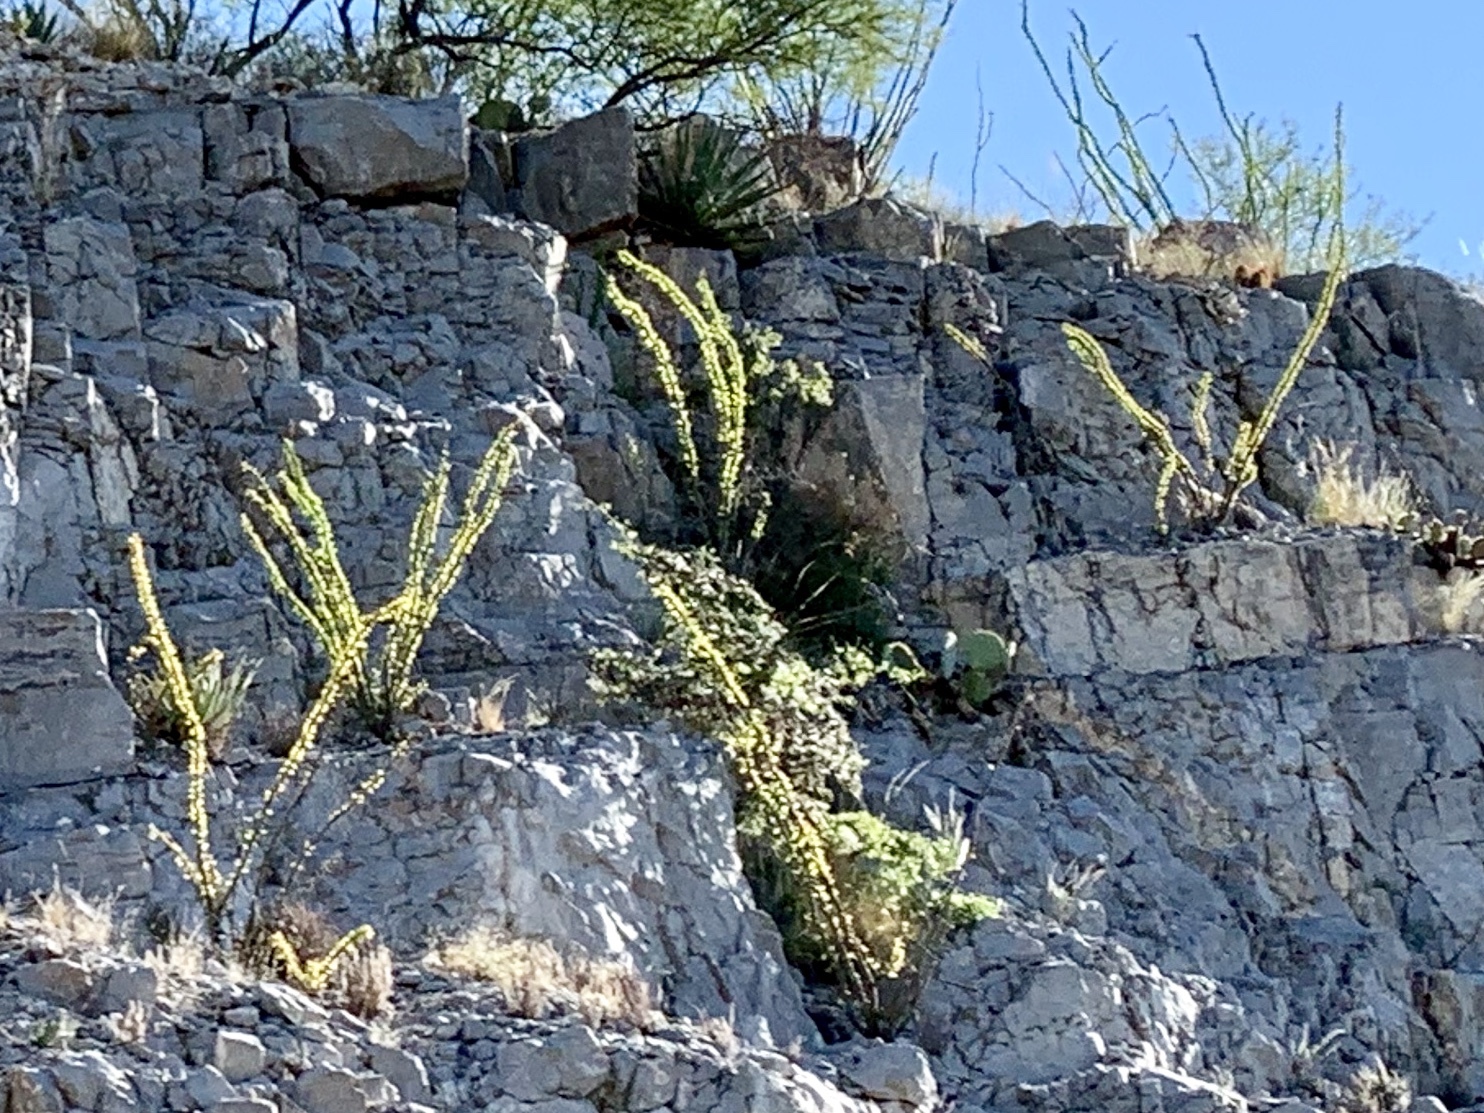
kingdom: Plantae
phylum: Tracheophyta
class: Magnoliopsida
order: Ericales
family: Fouquieriaceae
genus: Fouquieria
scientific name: Fouquieria splendens
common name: Vine-cactus
